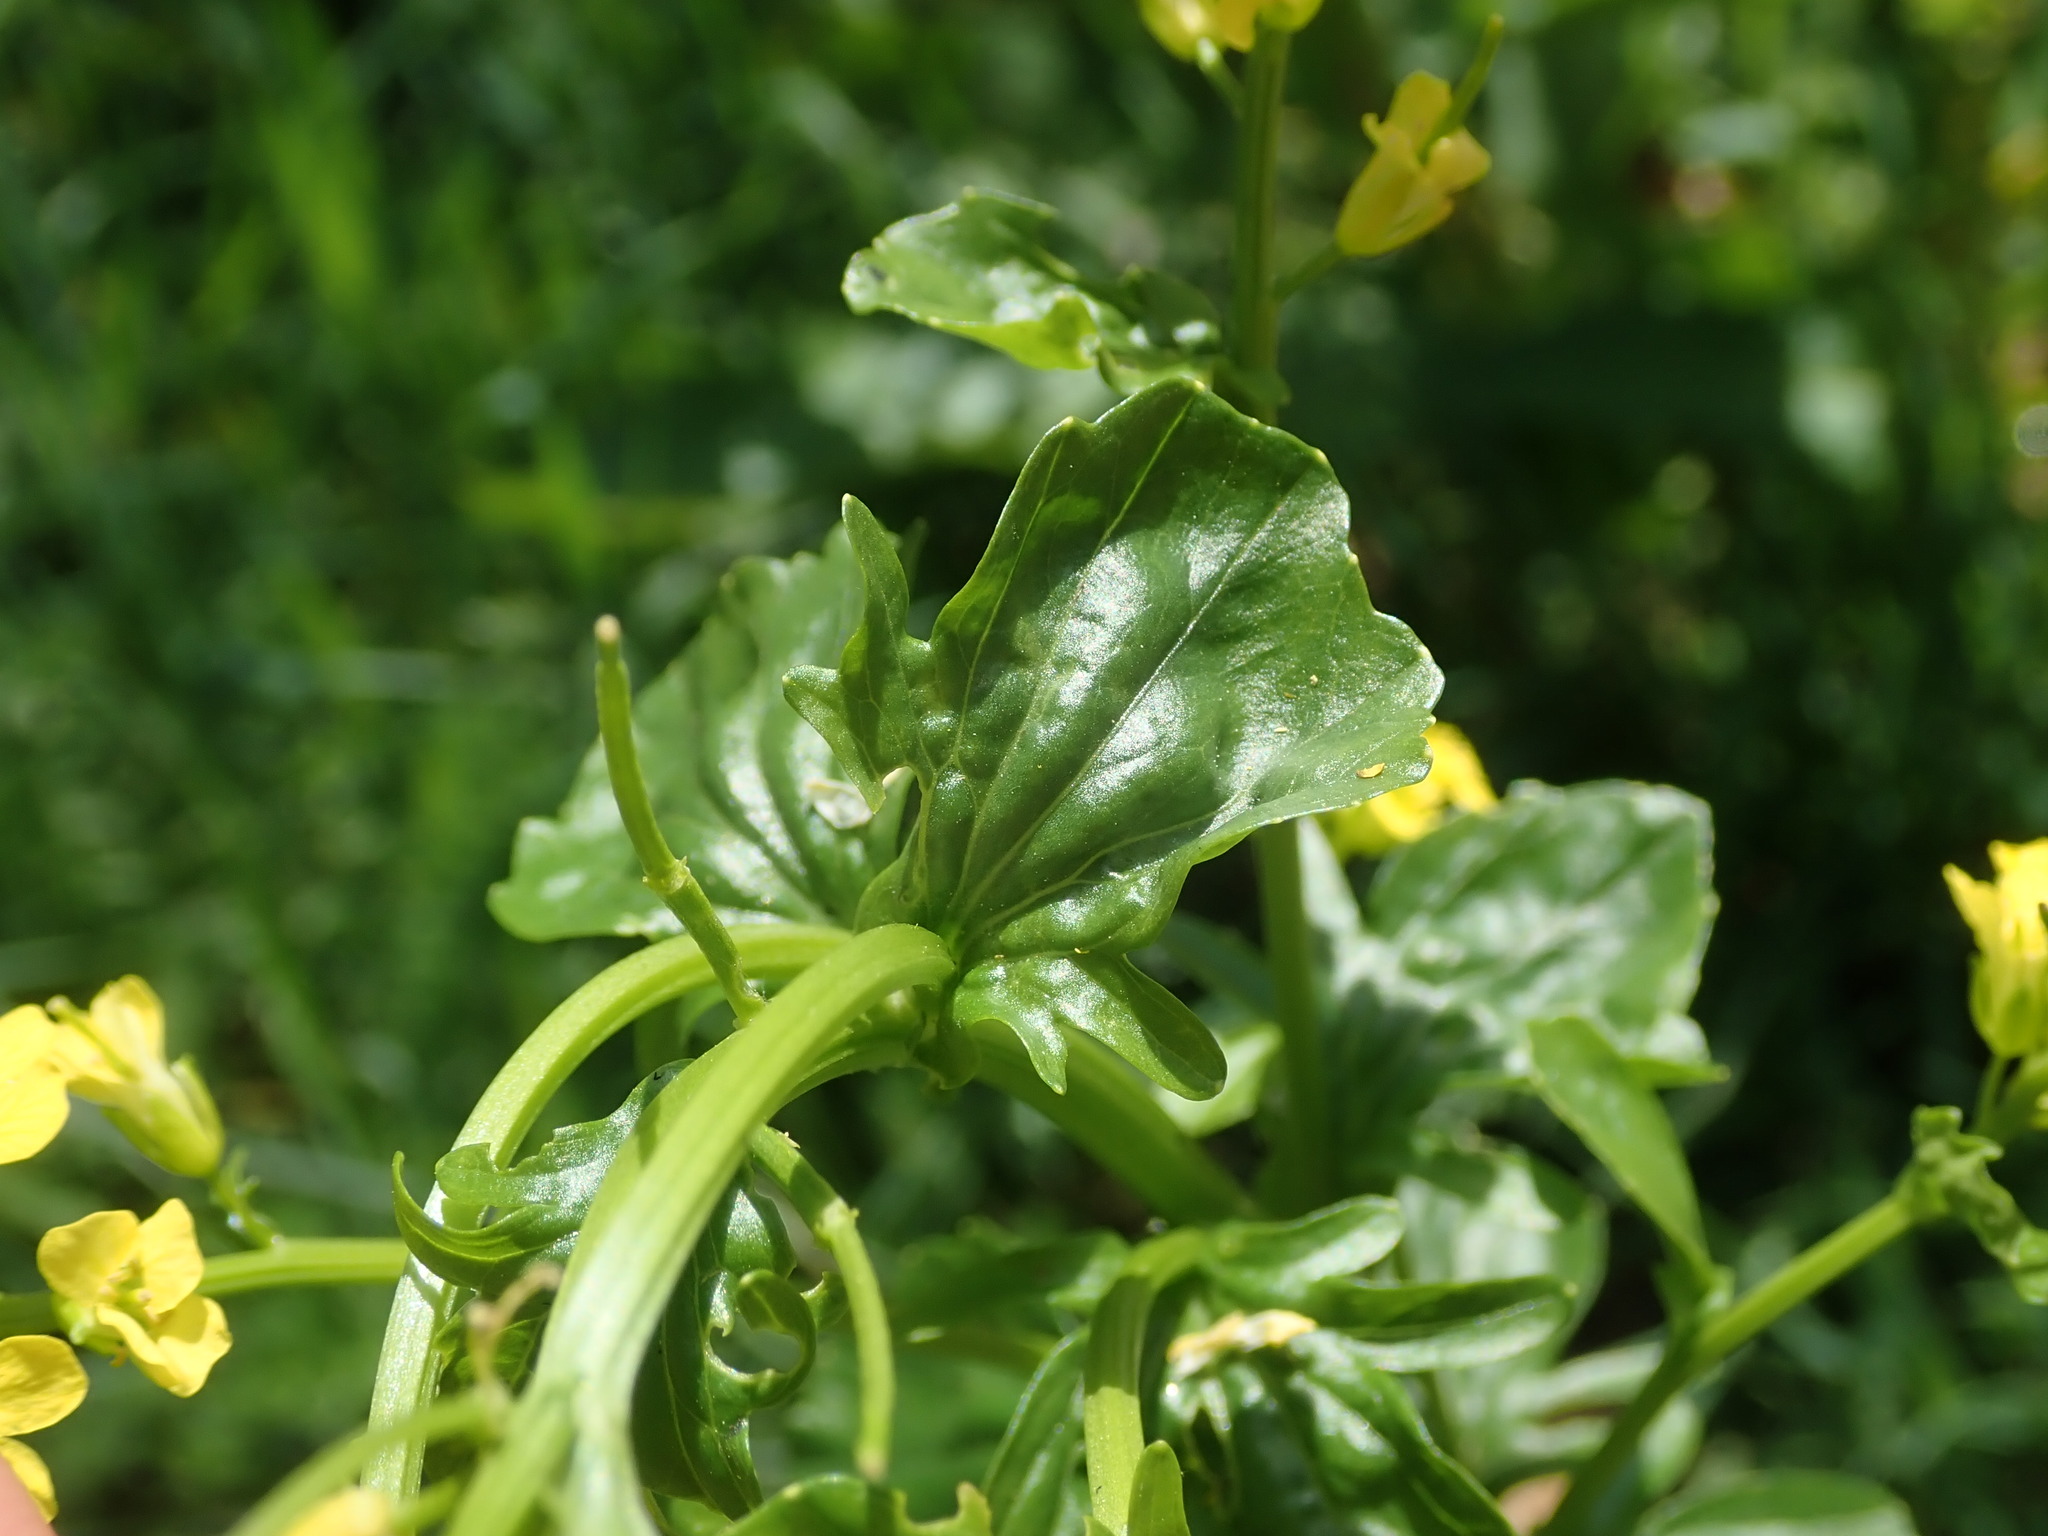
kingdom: Plantae
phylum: Tracheophyta
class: Magnoliopsida
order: Brassicales
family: Brassicaceae
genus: Barbarea
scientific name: Barbarea vulgaris
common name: Cressy-greens
